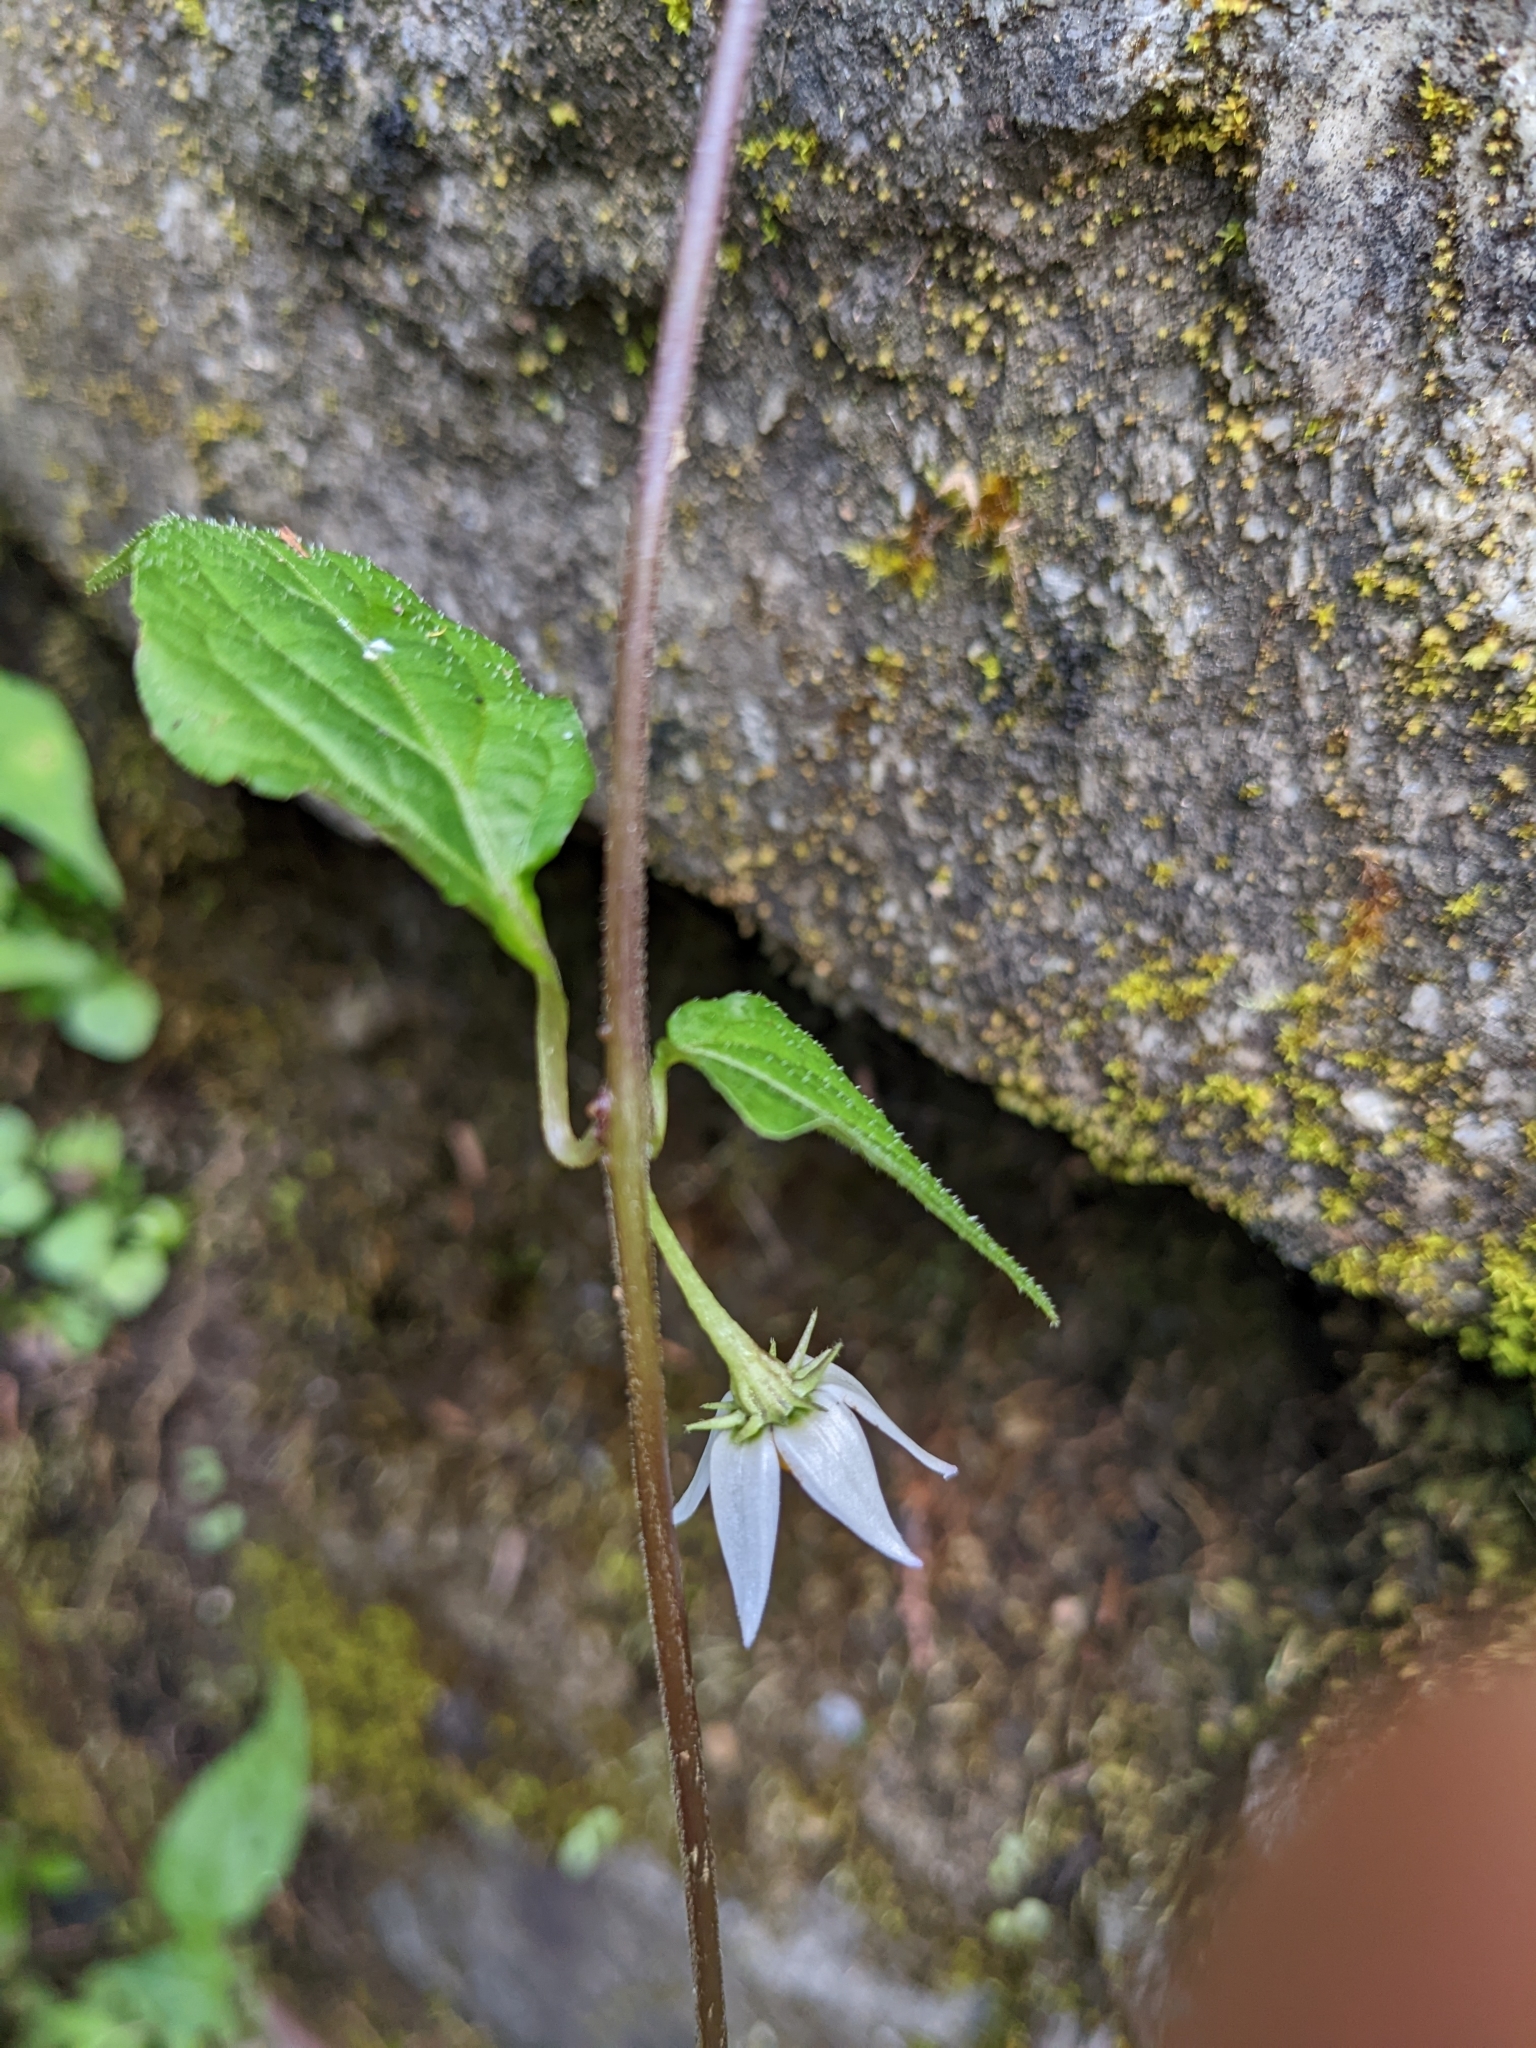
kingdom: Plantae
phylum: Tracheophyta
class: Magnoliopsida
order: Solanales
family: Solanaceae
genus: Lycianthes
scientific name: Lycianthes lysimachioides
